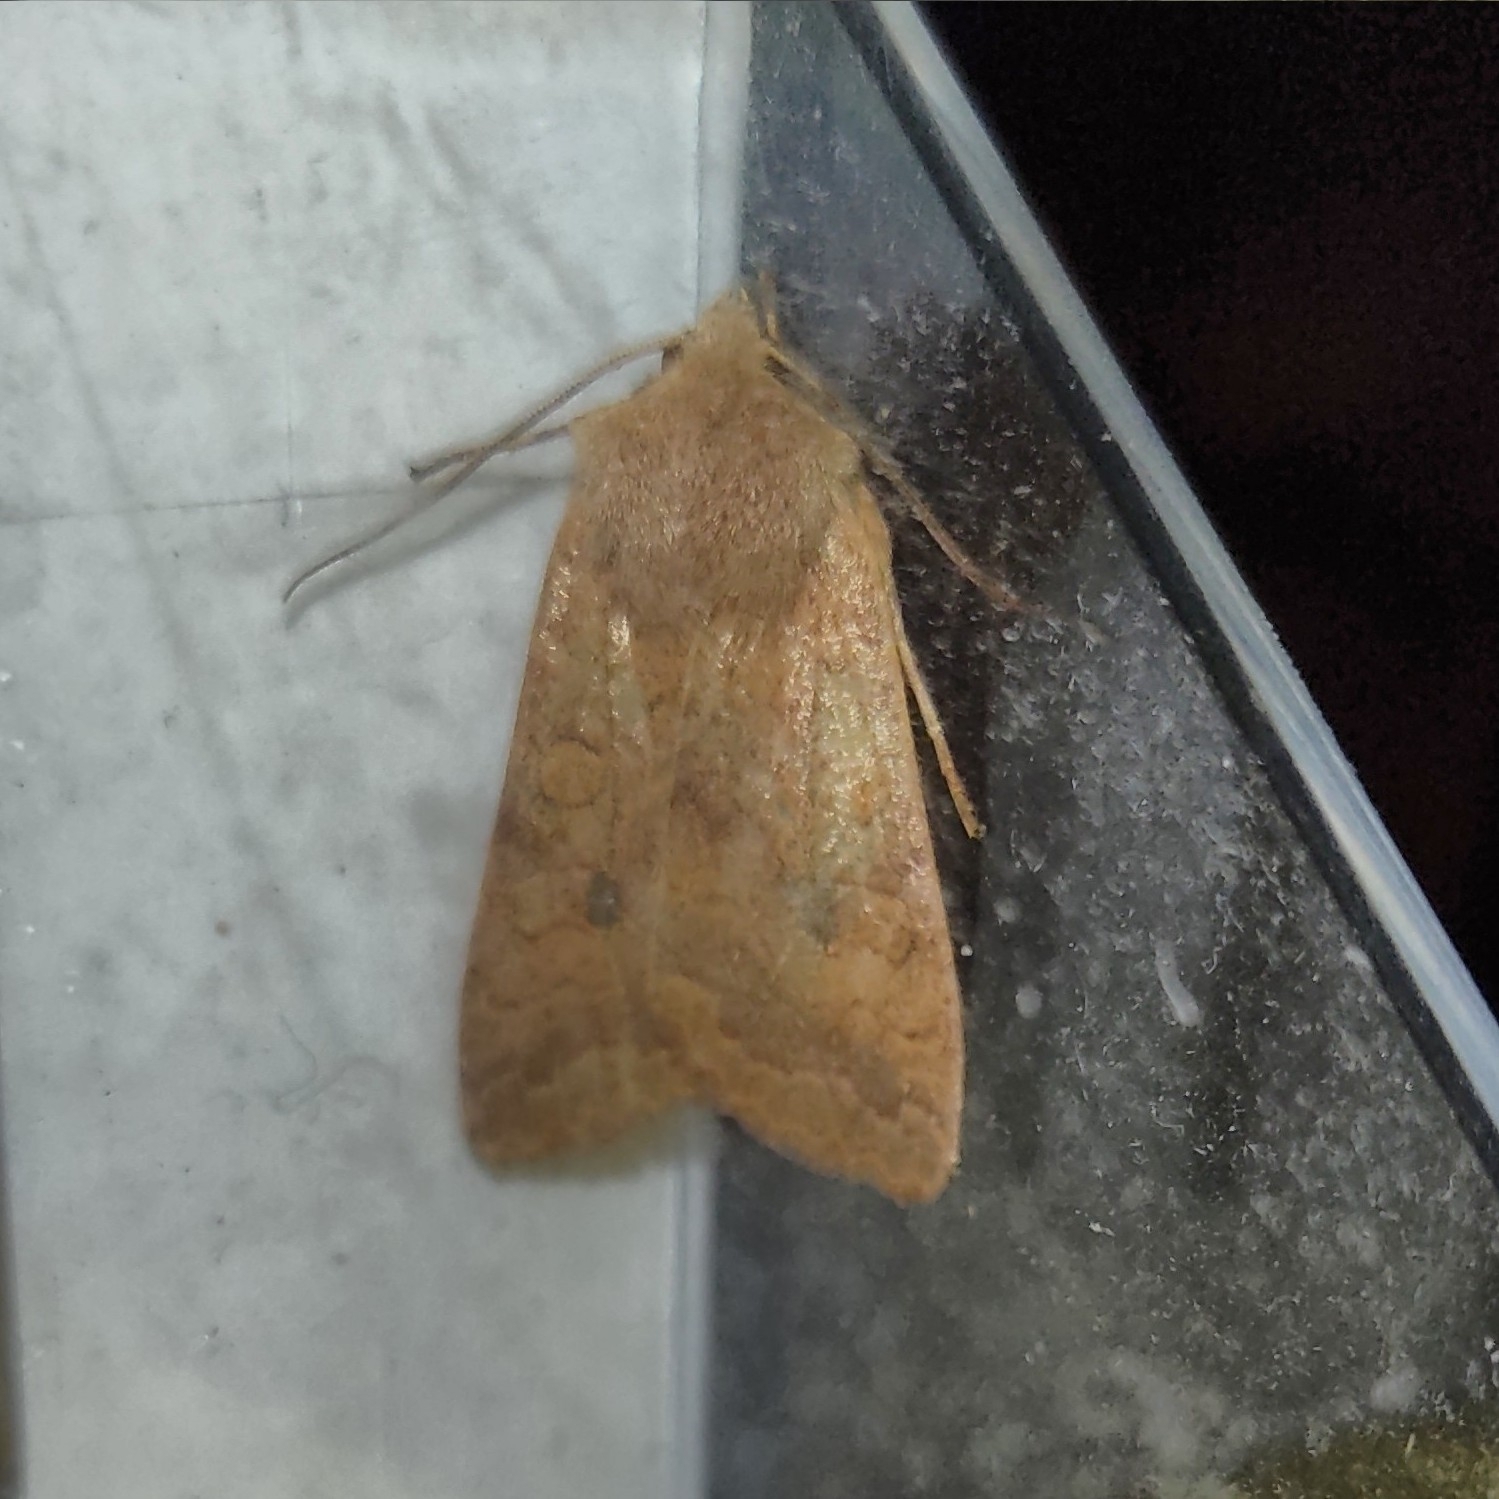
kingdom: Animalia
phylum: Arthropoda
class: Insecta
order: Lepidoptera
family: Noctuidae
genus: Sunira
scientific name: Sunira circellaris
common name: Brick
